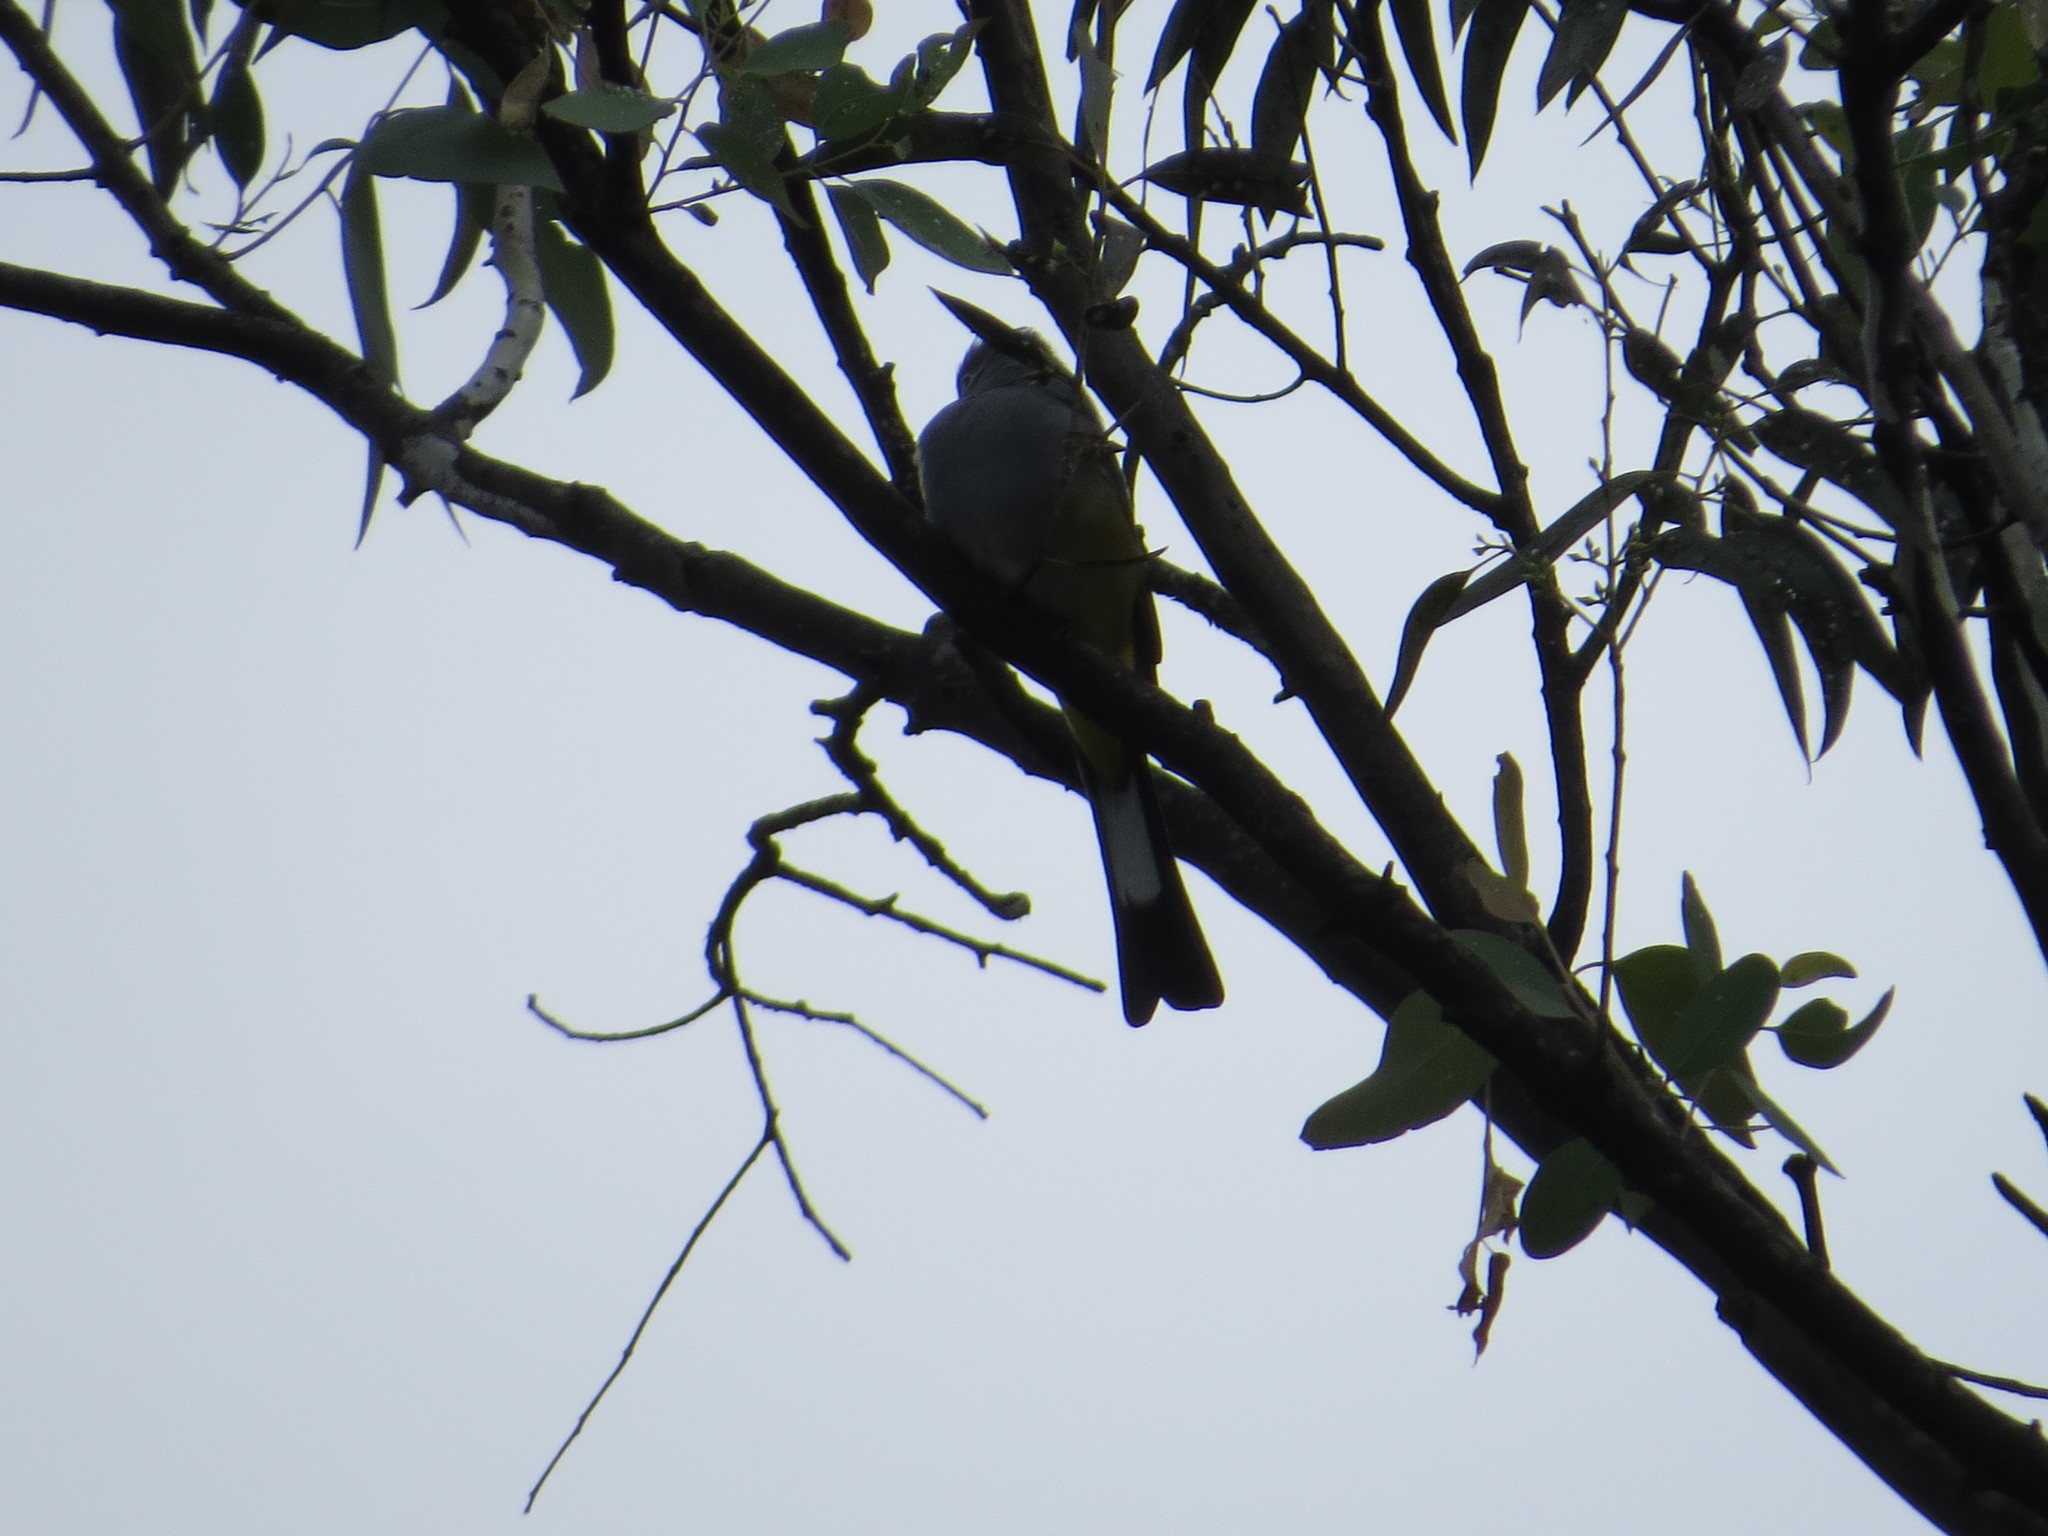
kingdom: Animalia
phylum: Chordata
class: Aves
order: Passeriformes
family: Ptilogonatidae
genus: Ptilogonys
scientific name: Ptilogonys cinereus
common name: Gray silky-flycatcher
